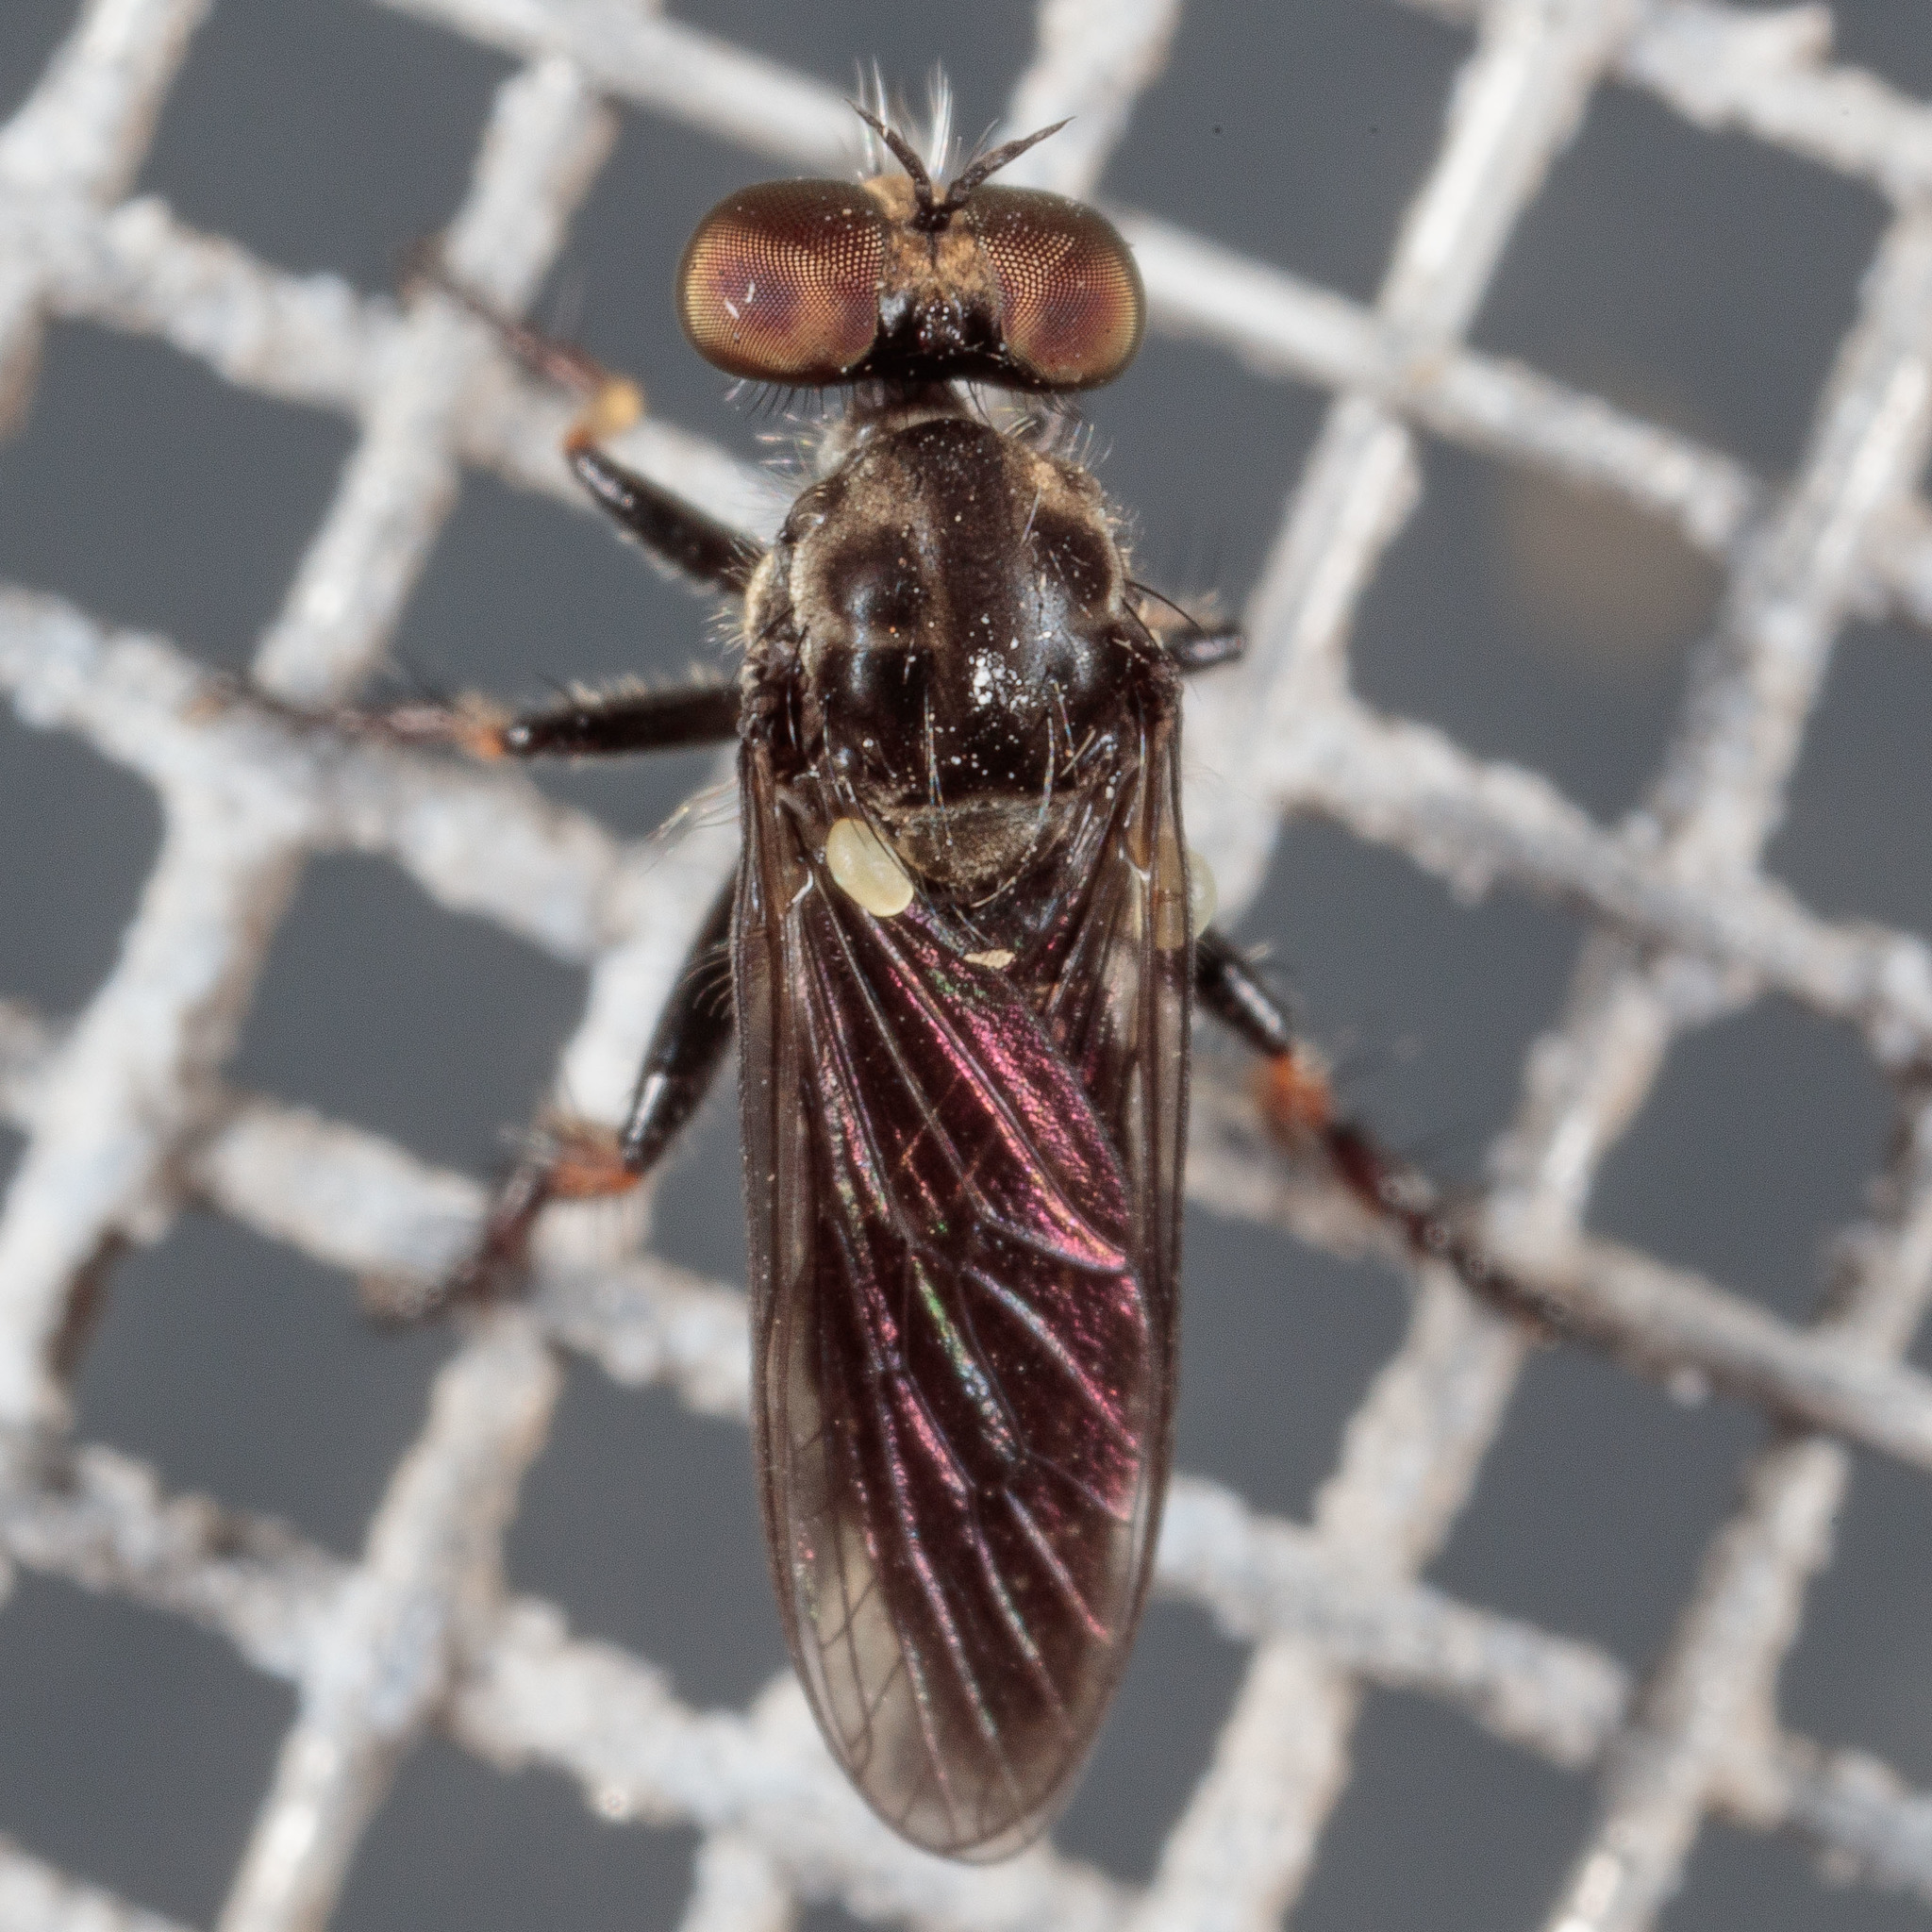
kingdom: Animalia
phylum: Arthropoda
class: Insecta
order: Diptera
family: Asilidae
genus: Hadrokolos
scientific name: Hadrokolos texanus
